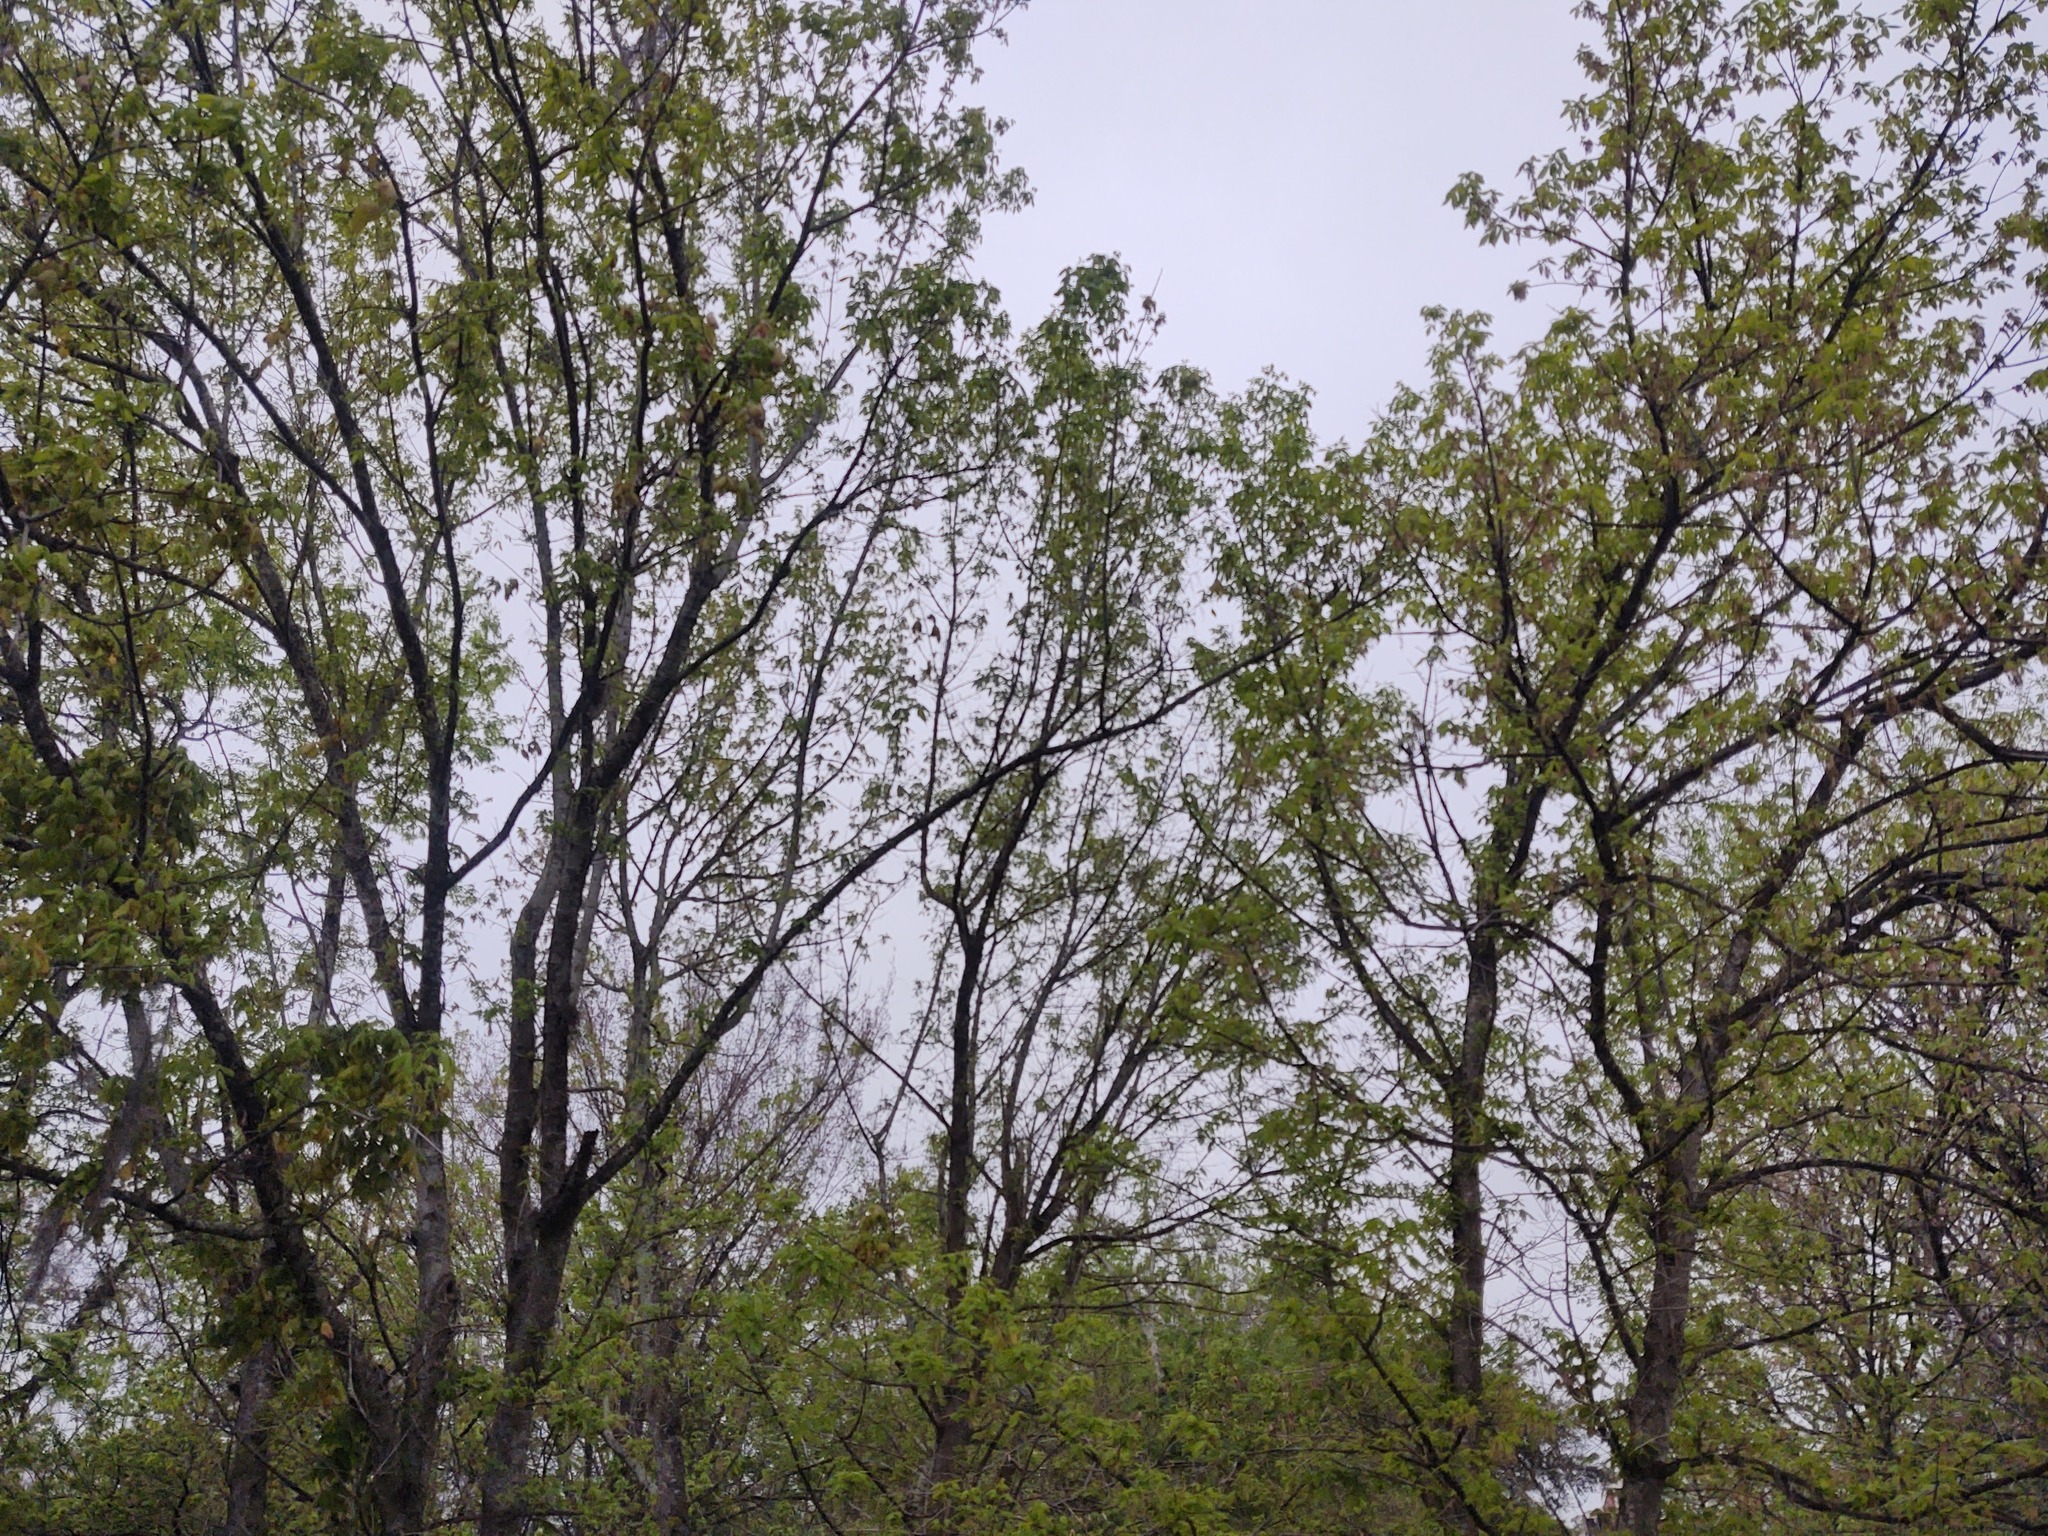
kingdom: Plantae
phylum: Tracheophyta
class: Magnoliopsida
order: Sapindales
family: Sapindaceae
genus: Acer
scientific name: Acer negundo
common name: Ashleaf maple
